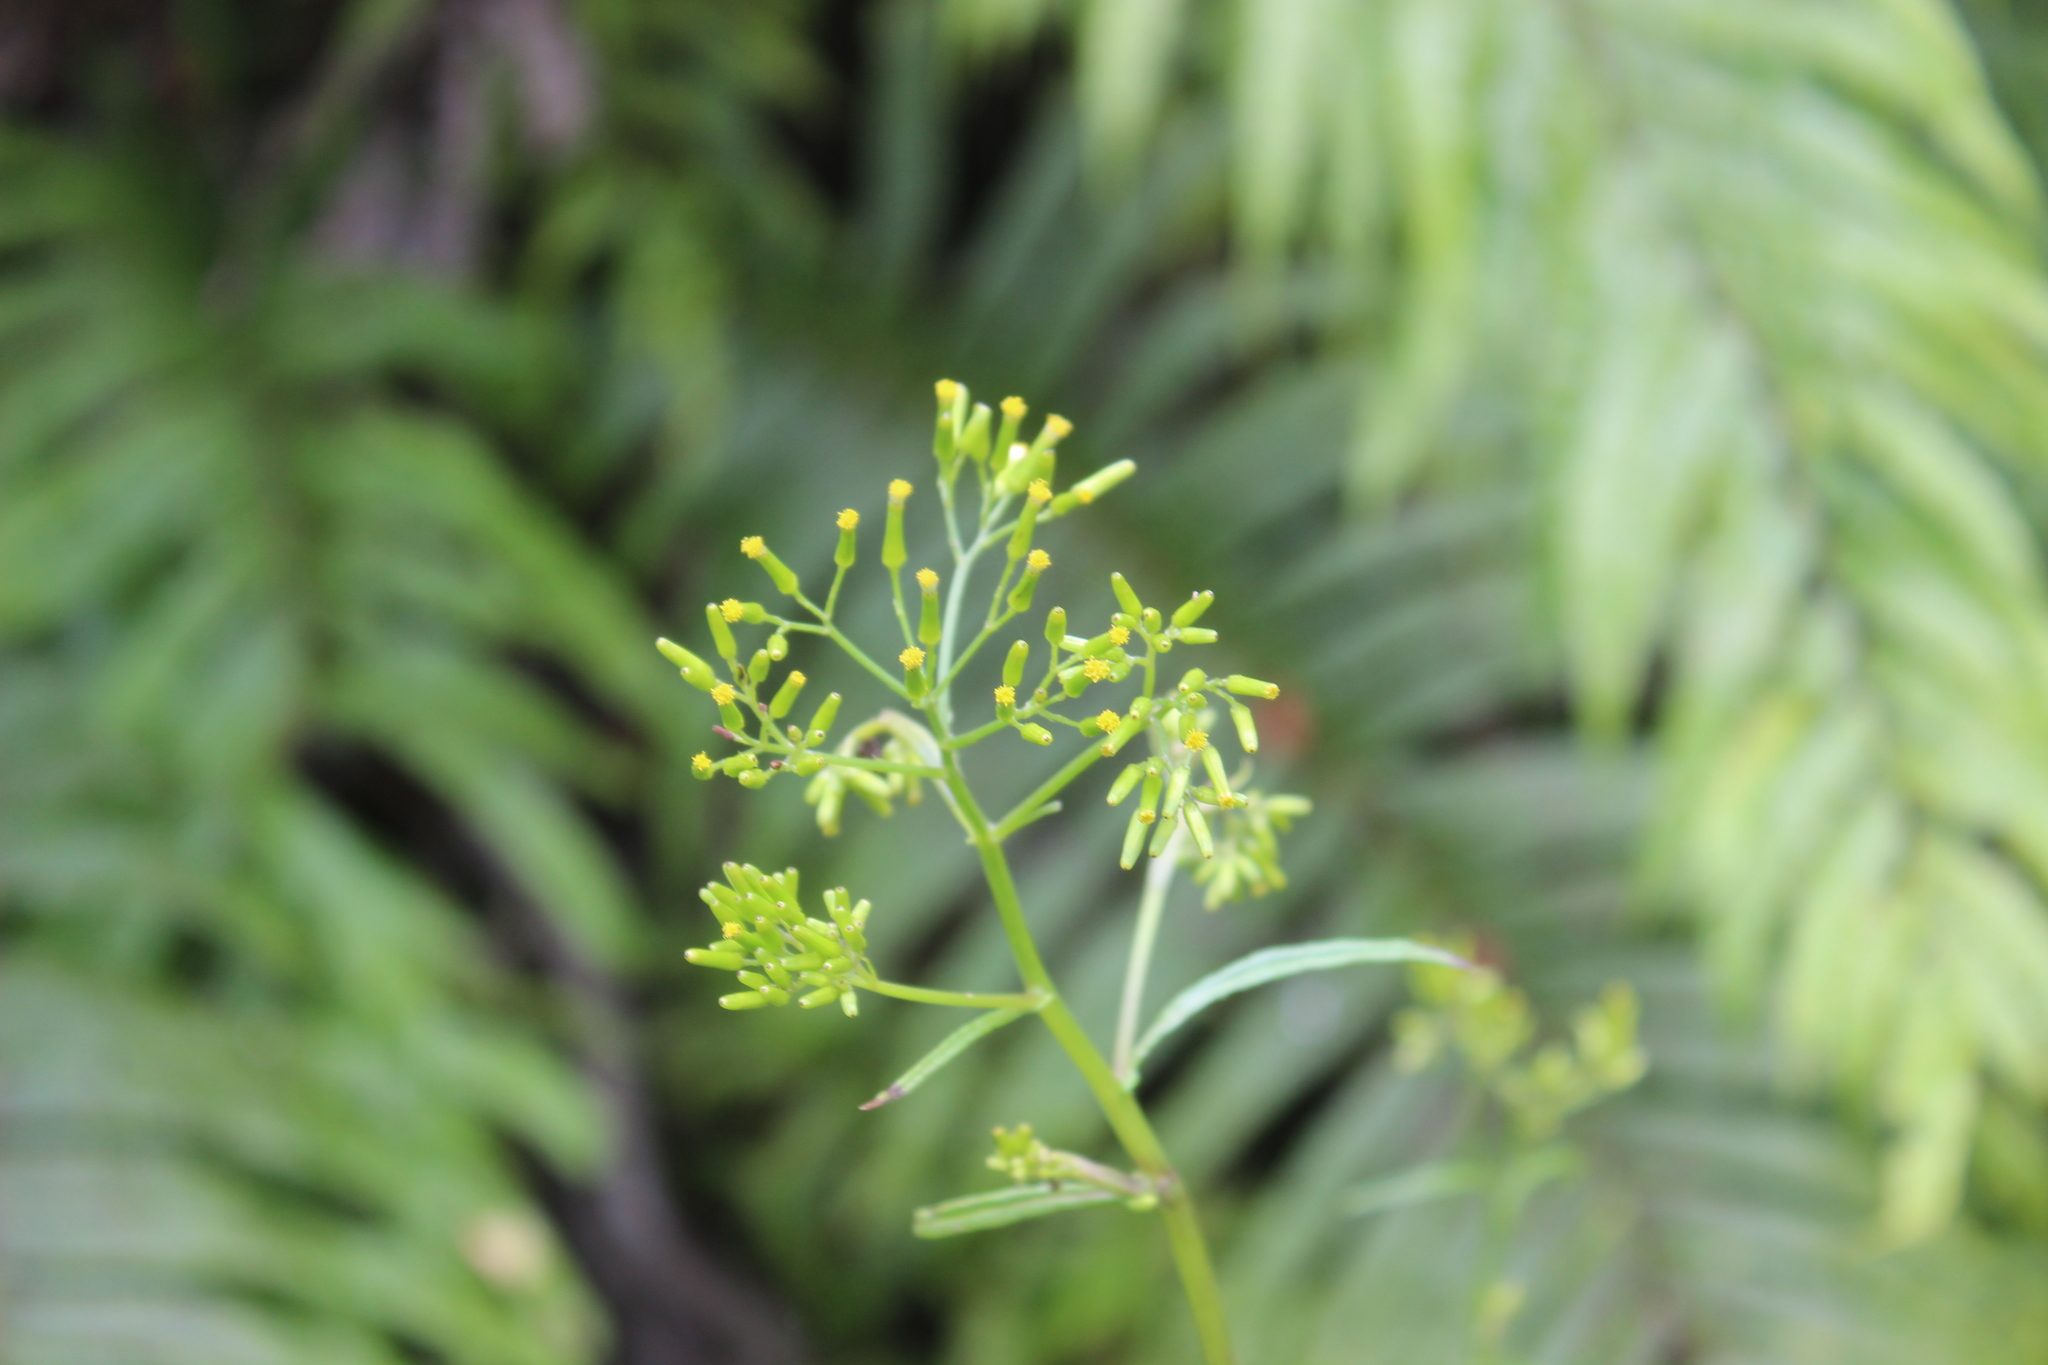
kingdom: Plantae
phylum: Tracheophyta
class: Magnoliopsida
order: Asterales
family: Asteraceae
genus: Senecio
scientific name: Senecio minimus
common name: Toothed fireweed
